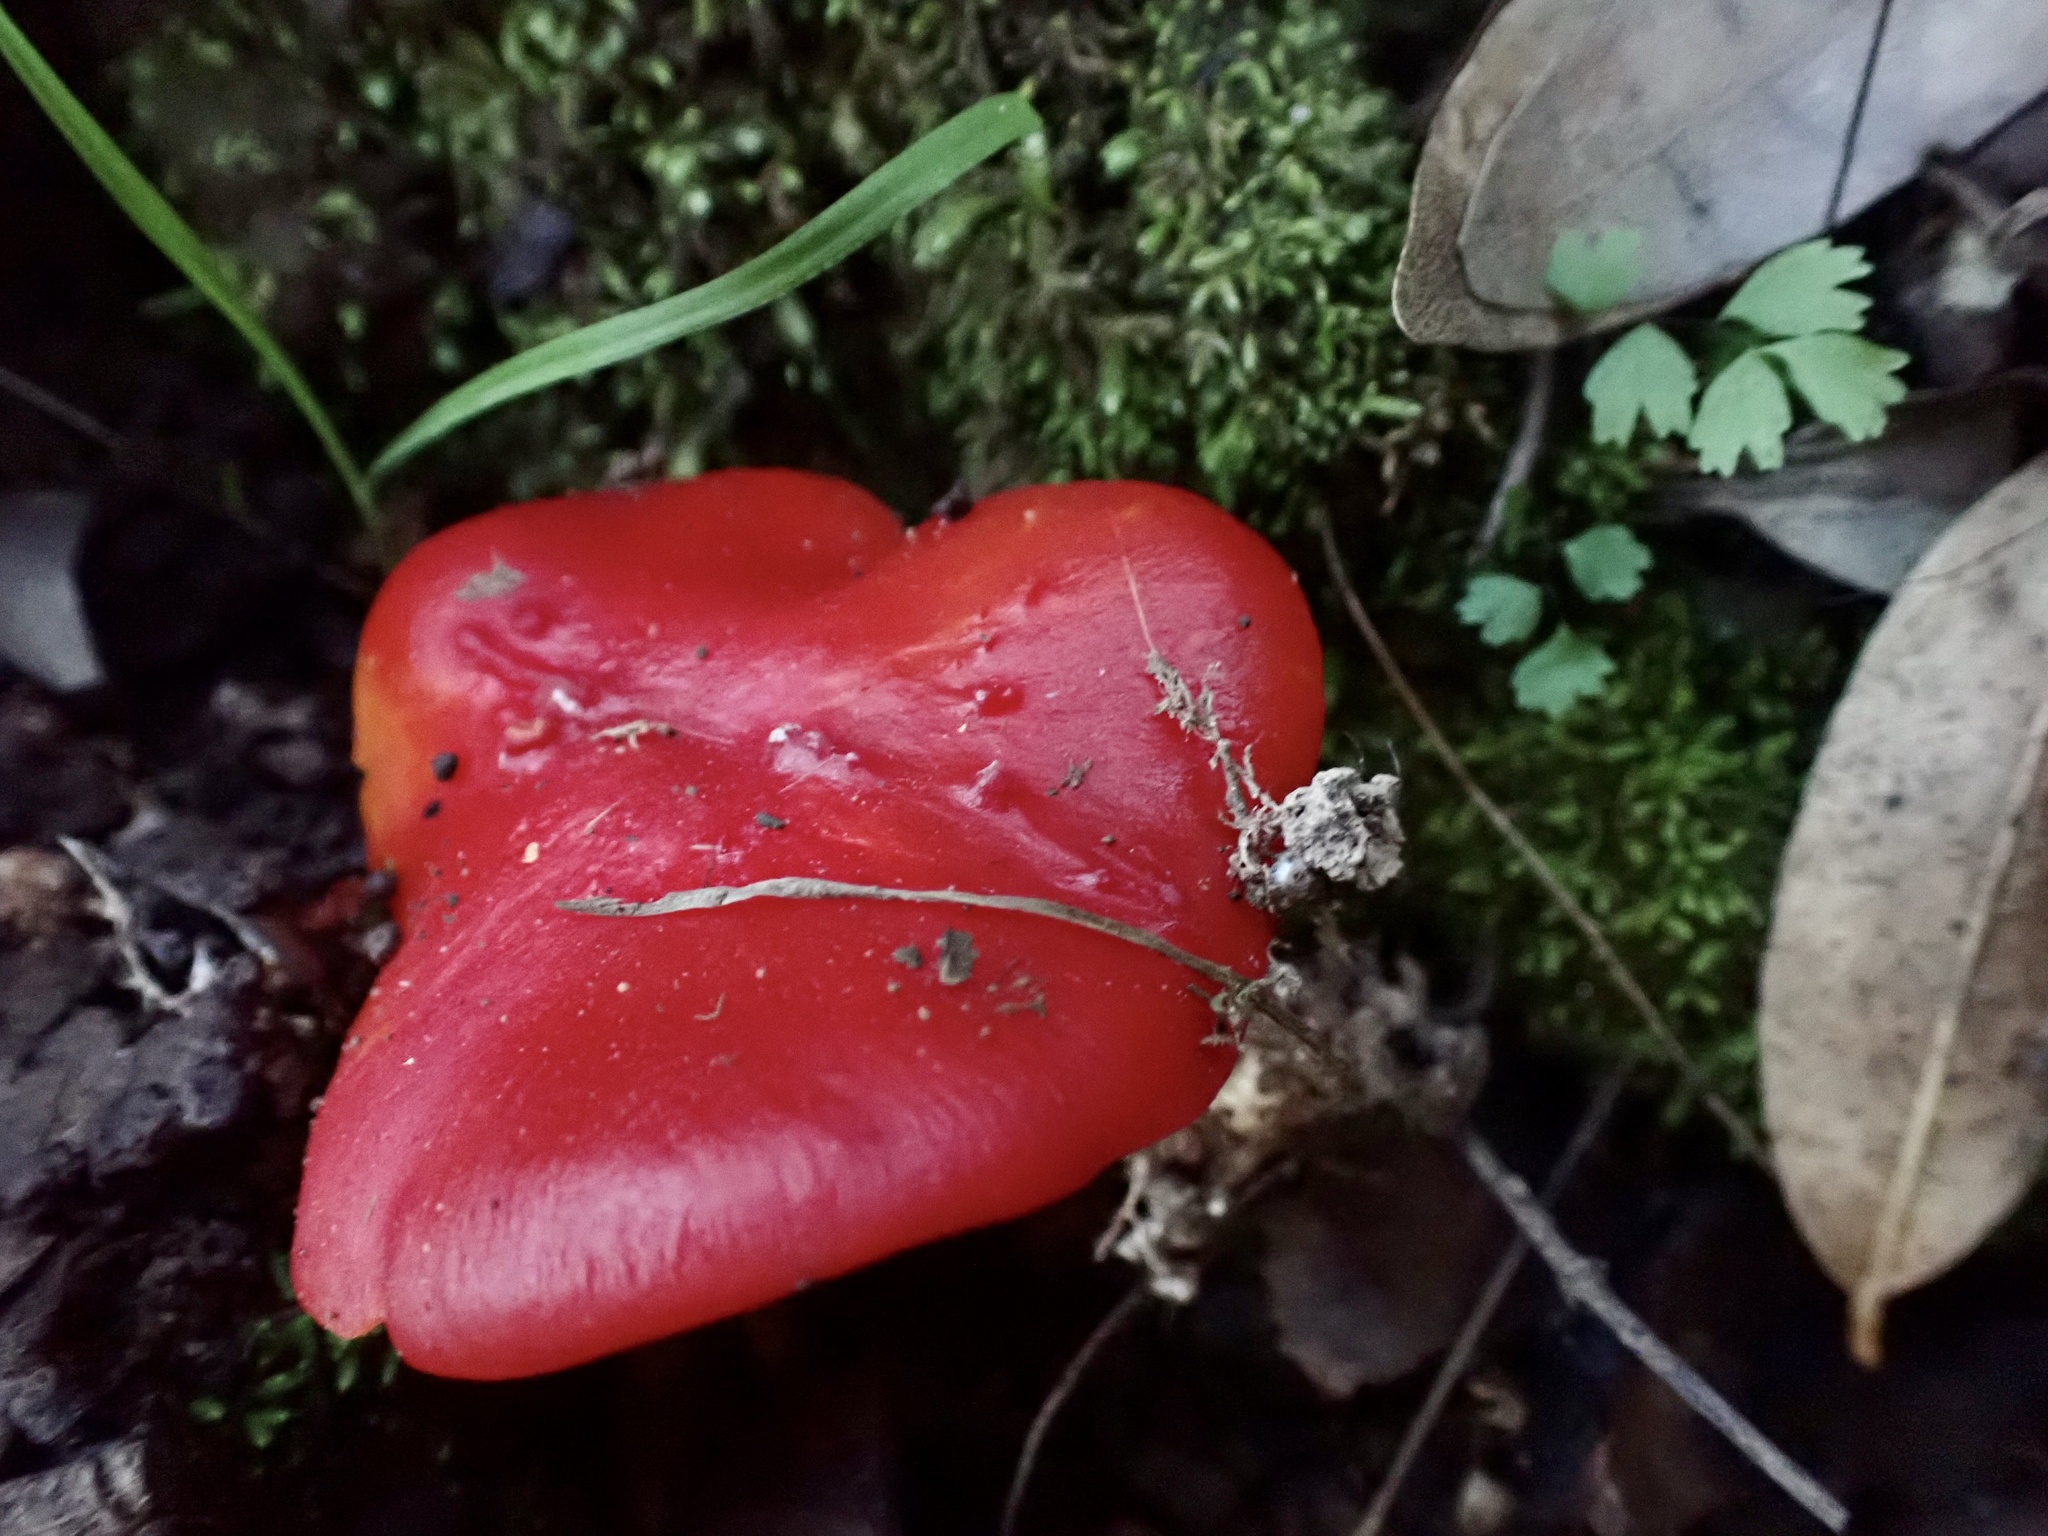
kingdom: Fungi
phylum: Basidiomycota
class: Agaricomycetes
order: Agaricales
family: Hygrophoraceae
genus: Hygrocybe
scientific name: Hygrocybe laetissima
